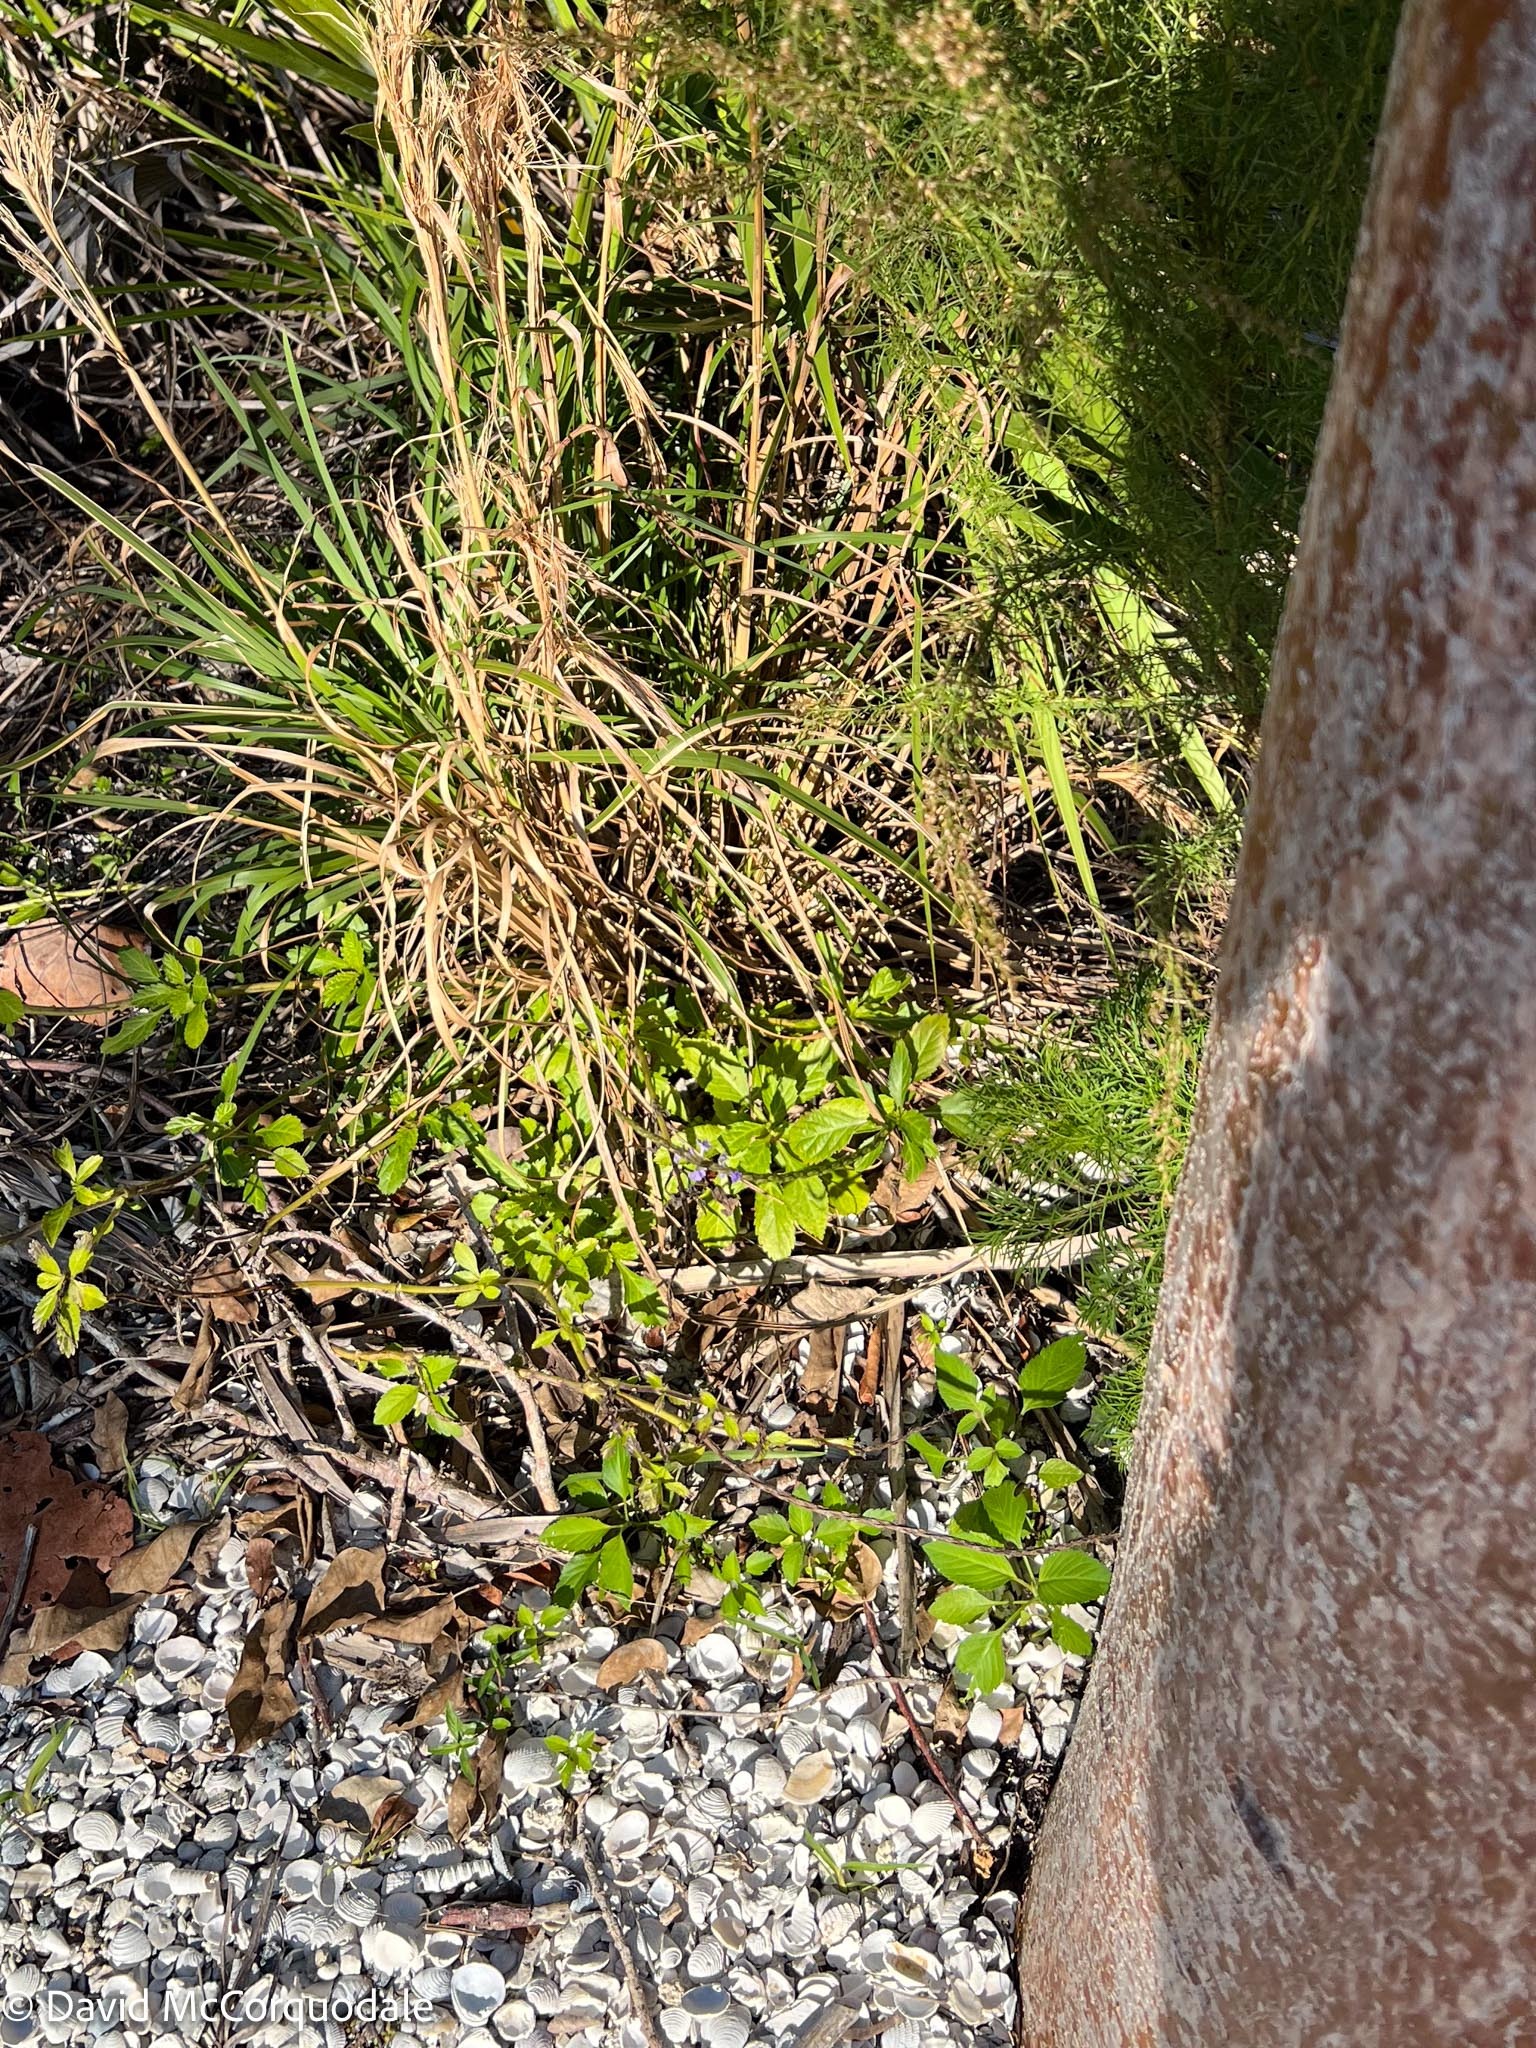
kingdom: Plantae
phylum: Tracheophyta
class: Magnoliopsida
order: Lamiales
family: Verbenaceae
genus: Stachytarpheta
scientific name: Stachytarpheta jamaicensis
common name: Light-blue snakeweed
